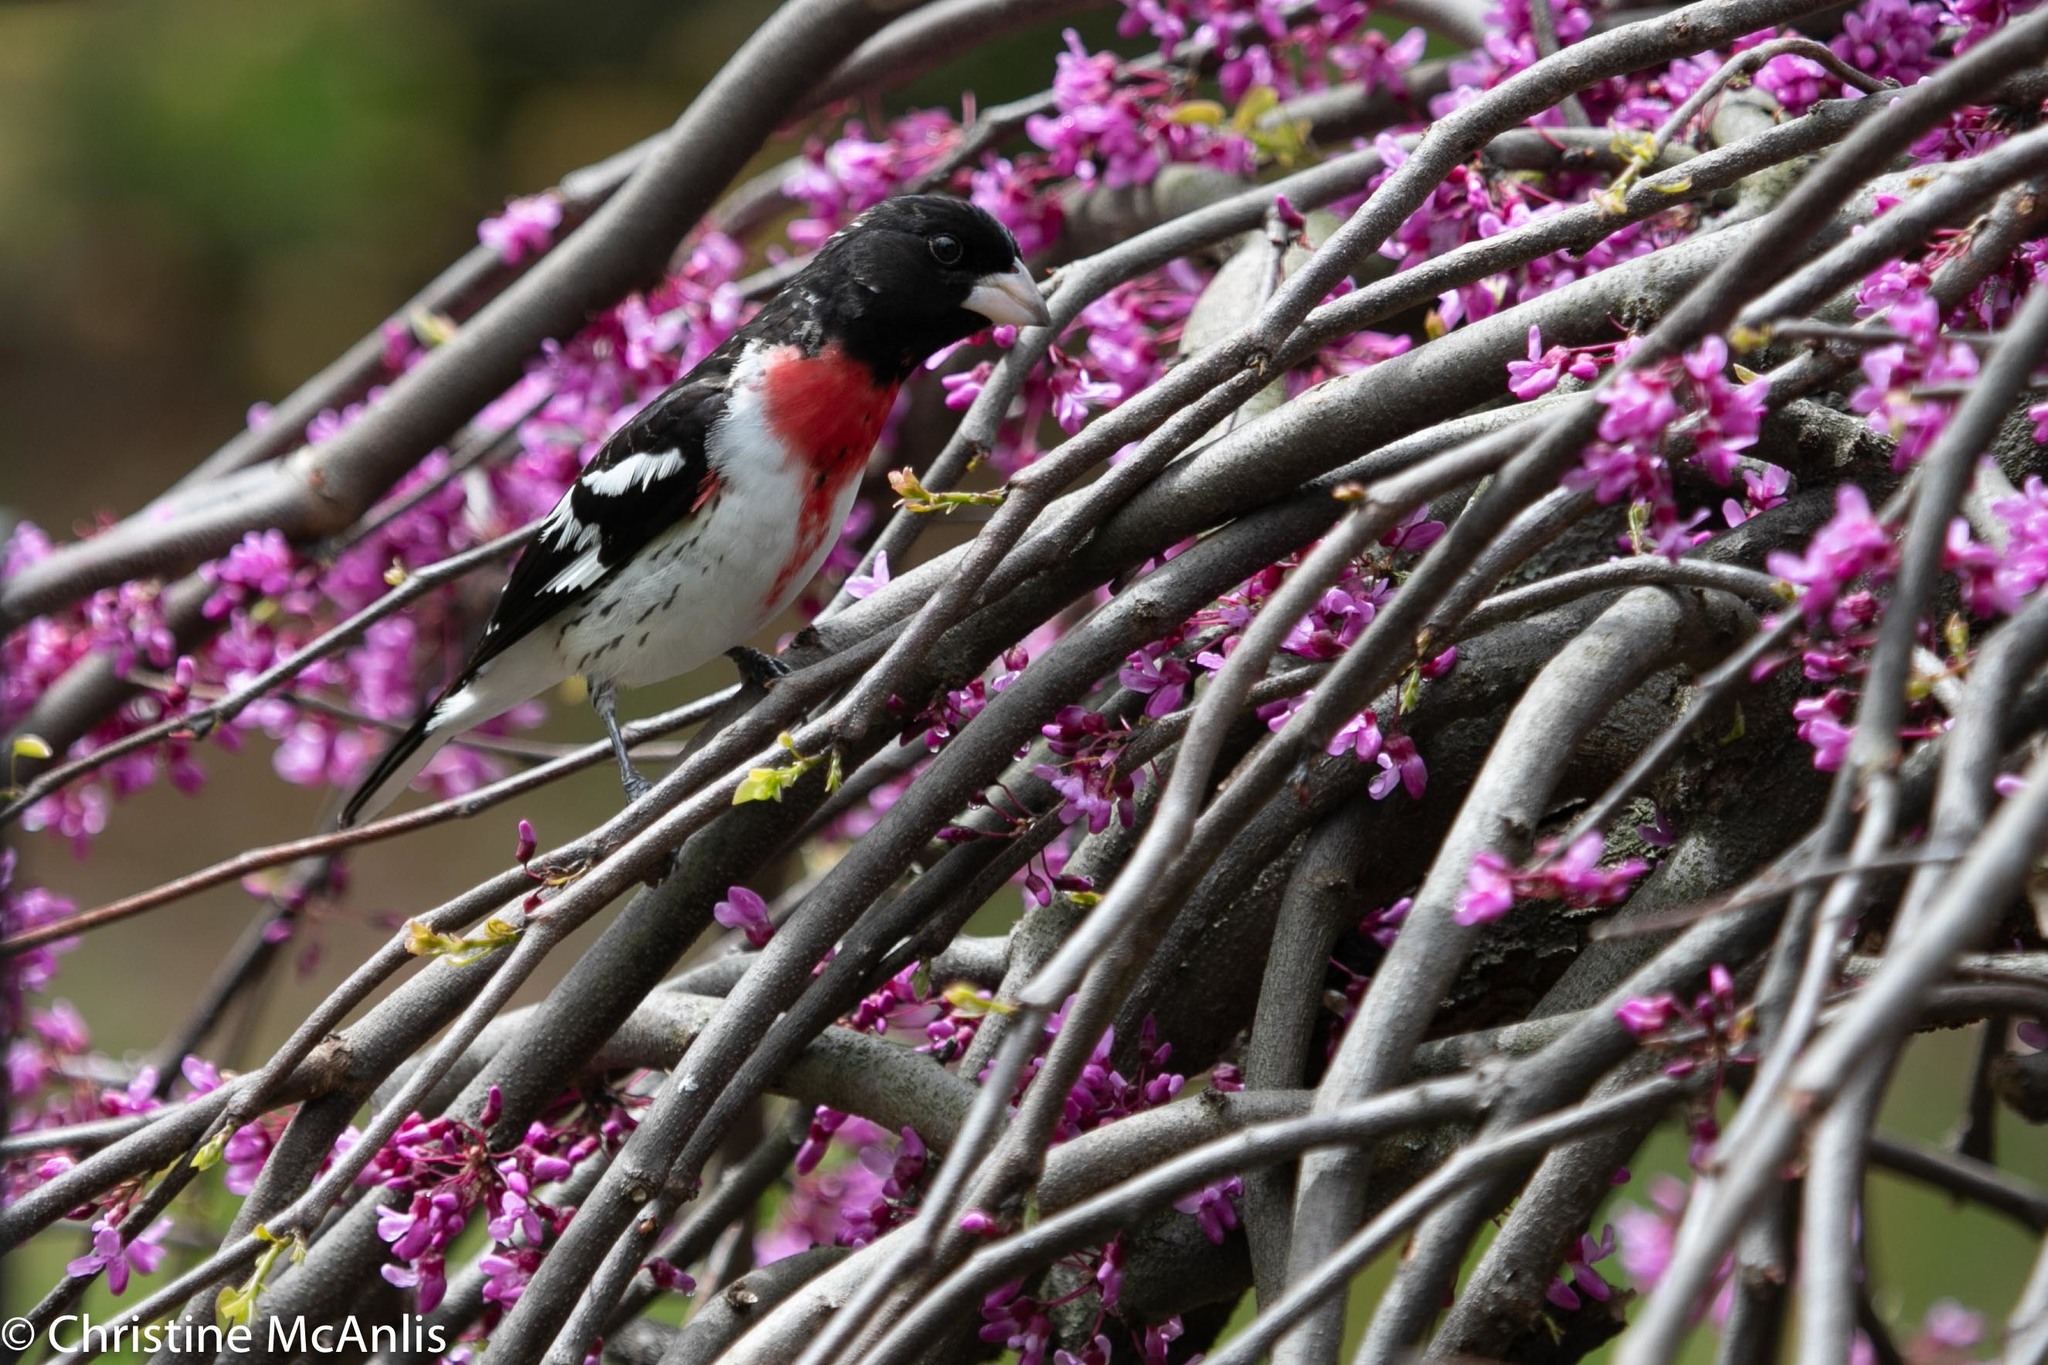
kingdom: Animalia
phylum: Chordata
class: Aves
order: Passeriformes
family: Cardinalidae
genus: Pheucticus
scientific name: Pheucticus ludovicianus
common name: Rose-breasted grosbeak
